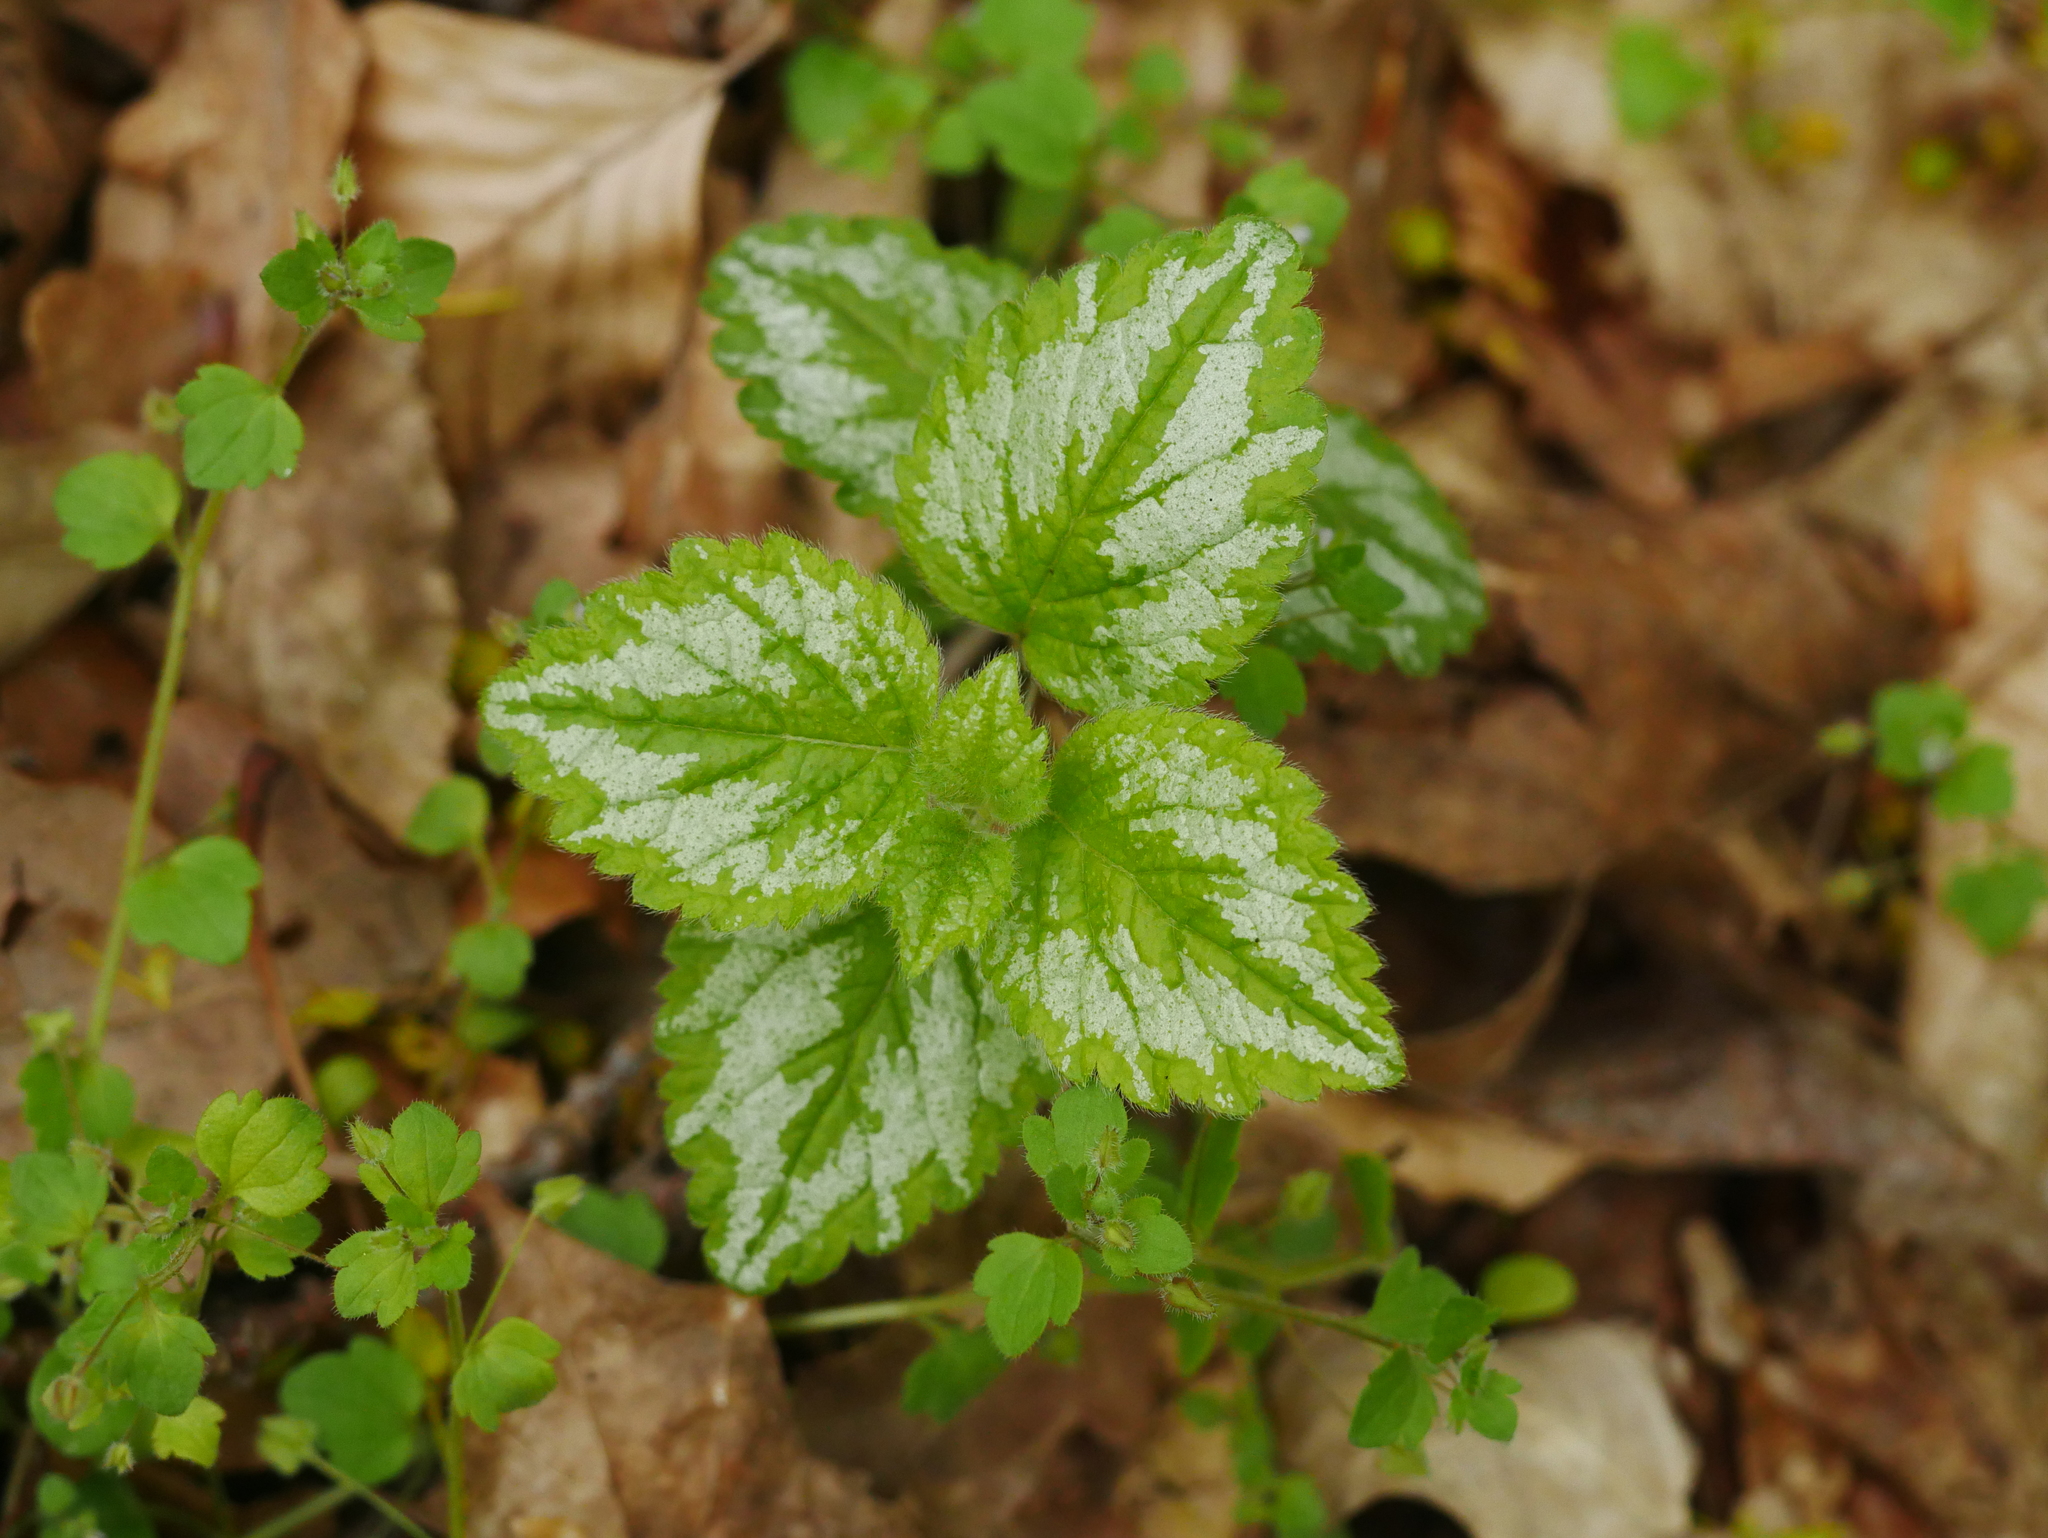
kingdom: Plantae
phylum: Tracheophyta
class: Magnoliopsida
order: Lamiales
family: Lamiaceae
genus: Lamium
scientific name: Lamium galeobdolon
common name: Yellow archangel
